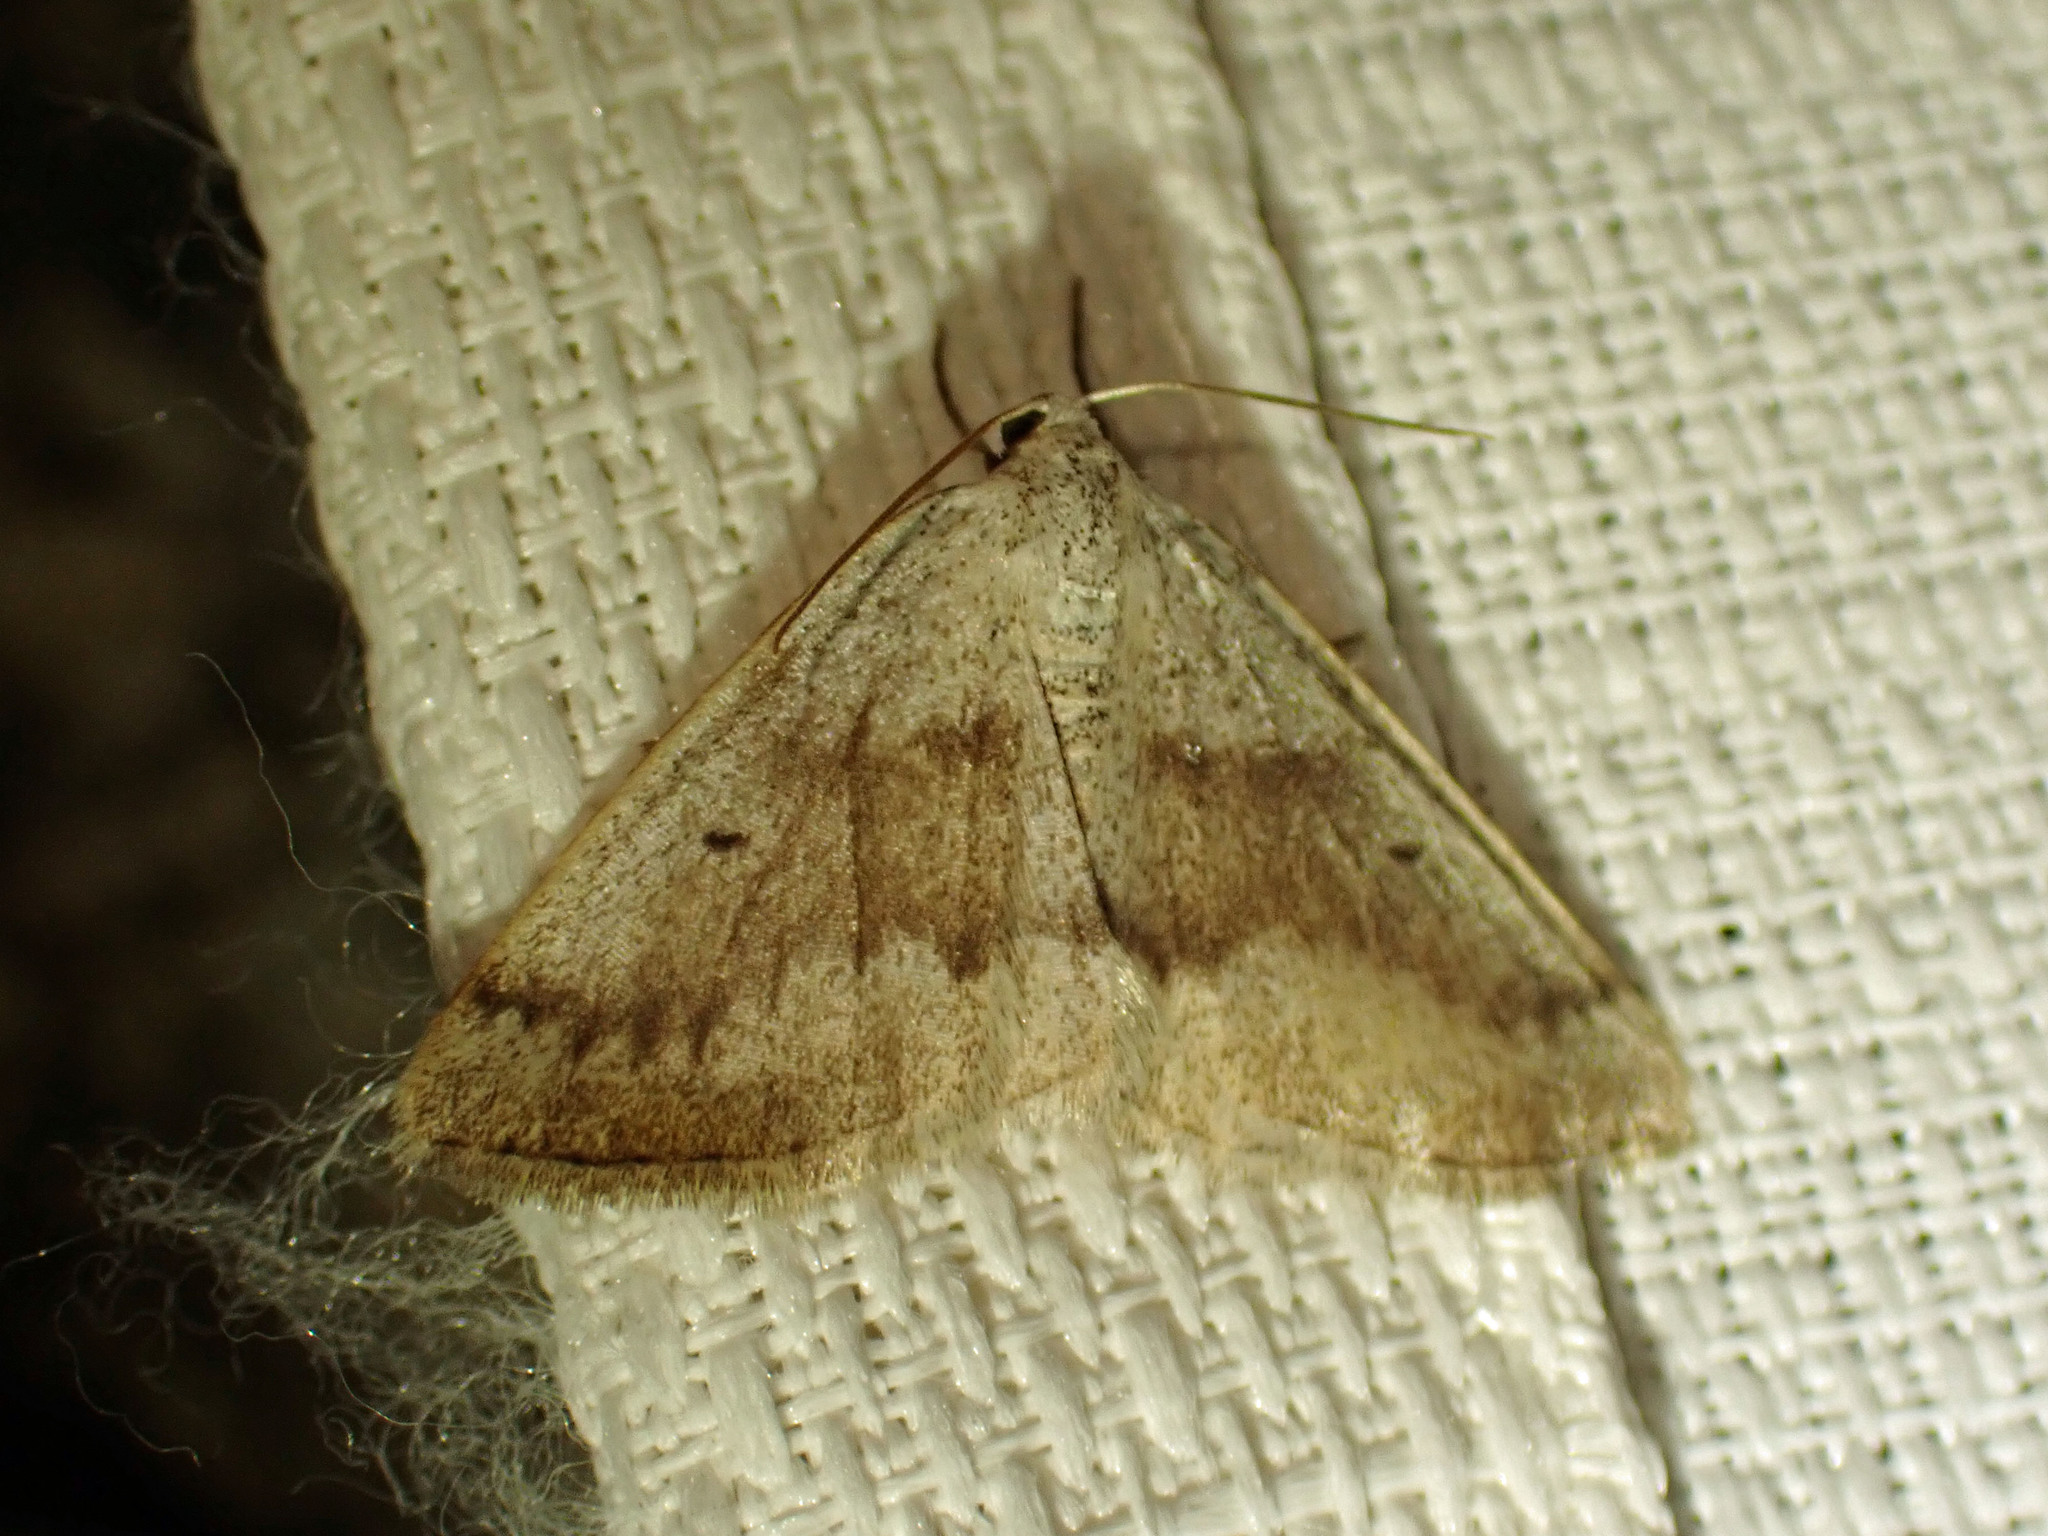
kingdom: Animalia
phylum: Arthropoda
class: Insecta
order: Lepidoptera
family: Geometridae
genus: Lomographa
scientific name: Lomographa glomeraria
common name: Gray spring moth
